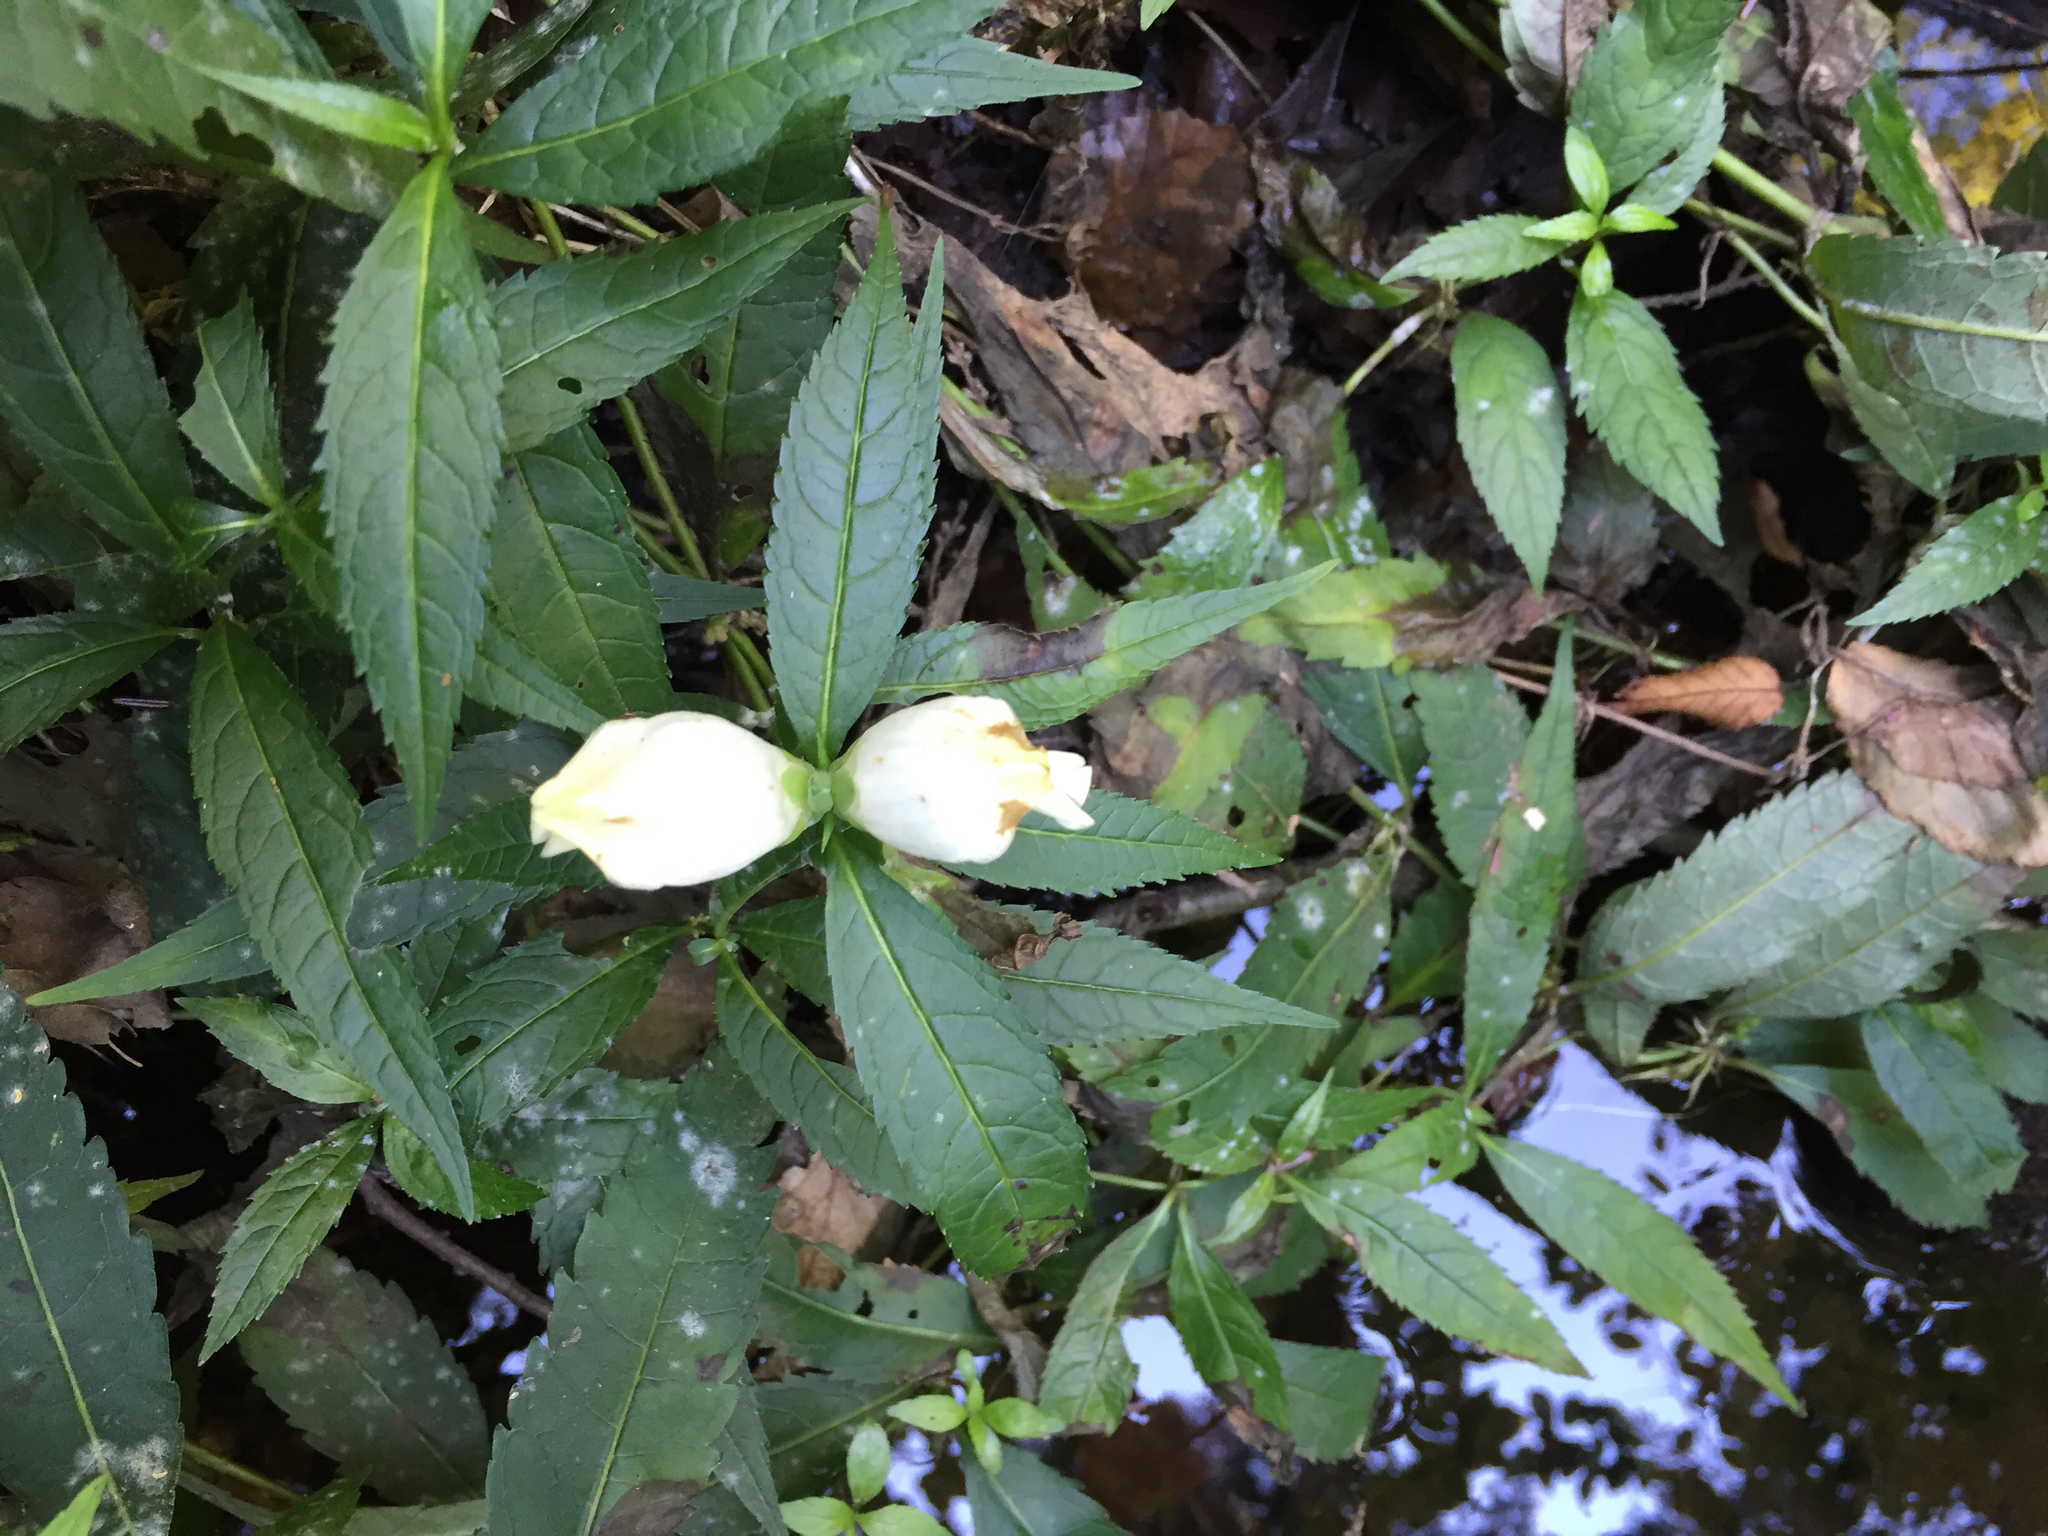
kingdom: Plantae
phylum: Tracheophyta
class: Magnoliopsida
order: Lamiales
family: Plantaginaceae
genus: Chelone
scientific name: Chelone glabra
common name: Snakehead
